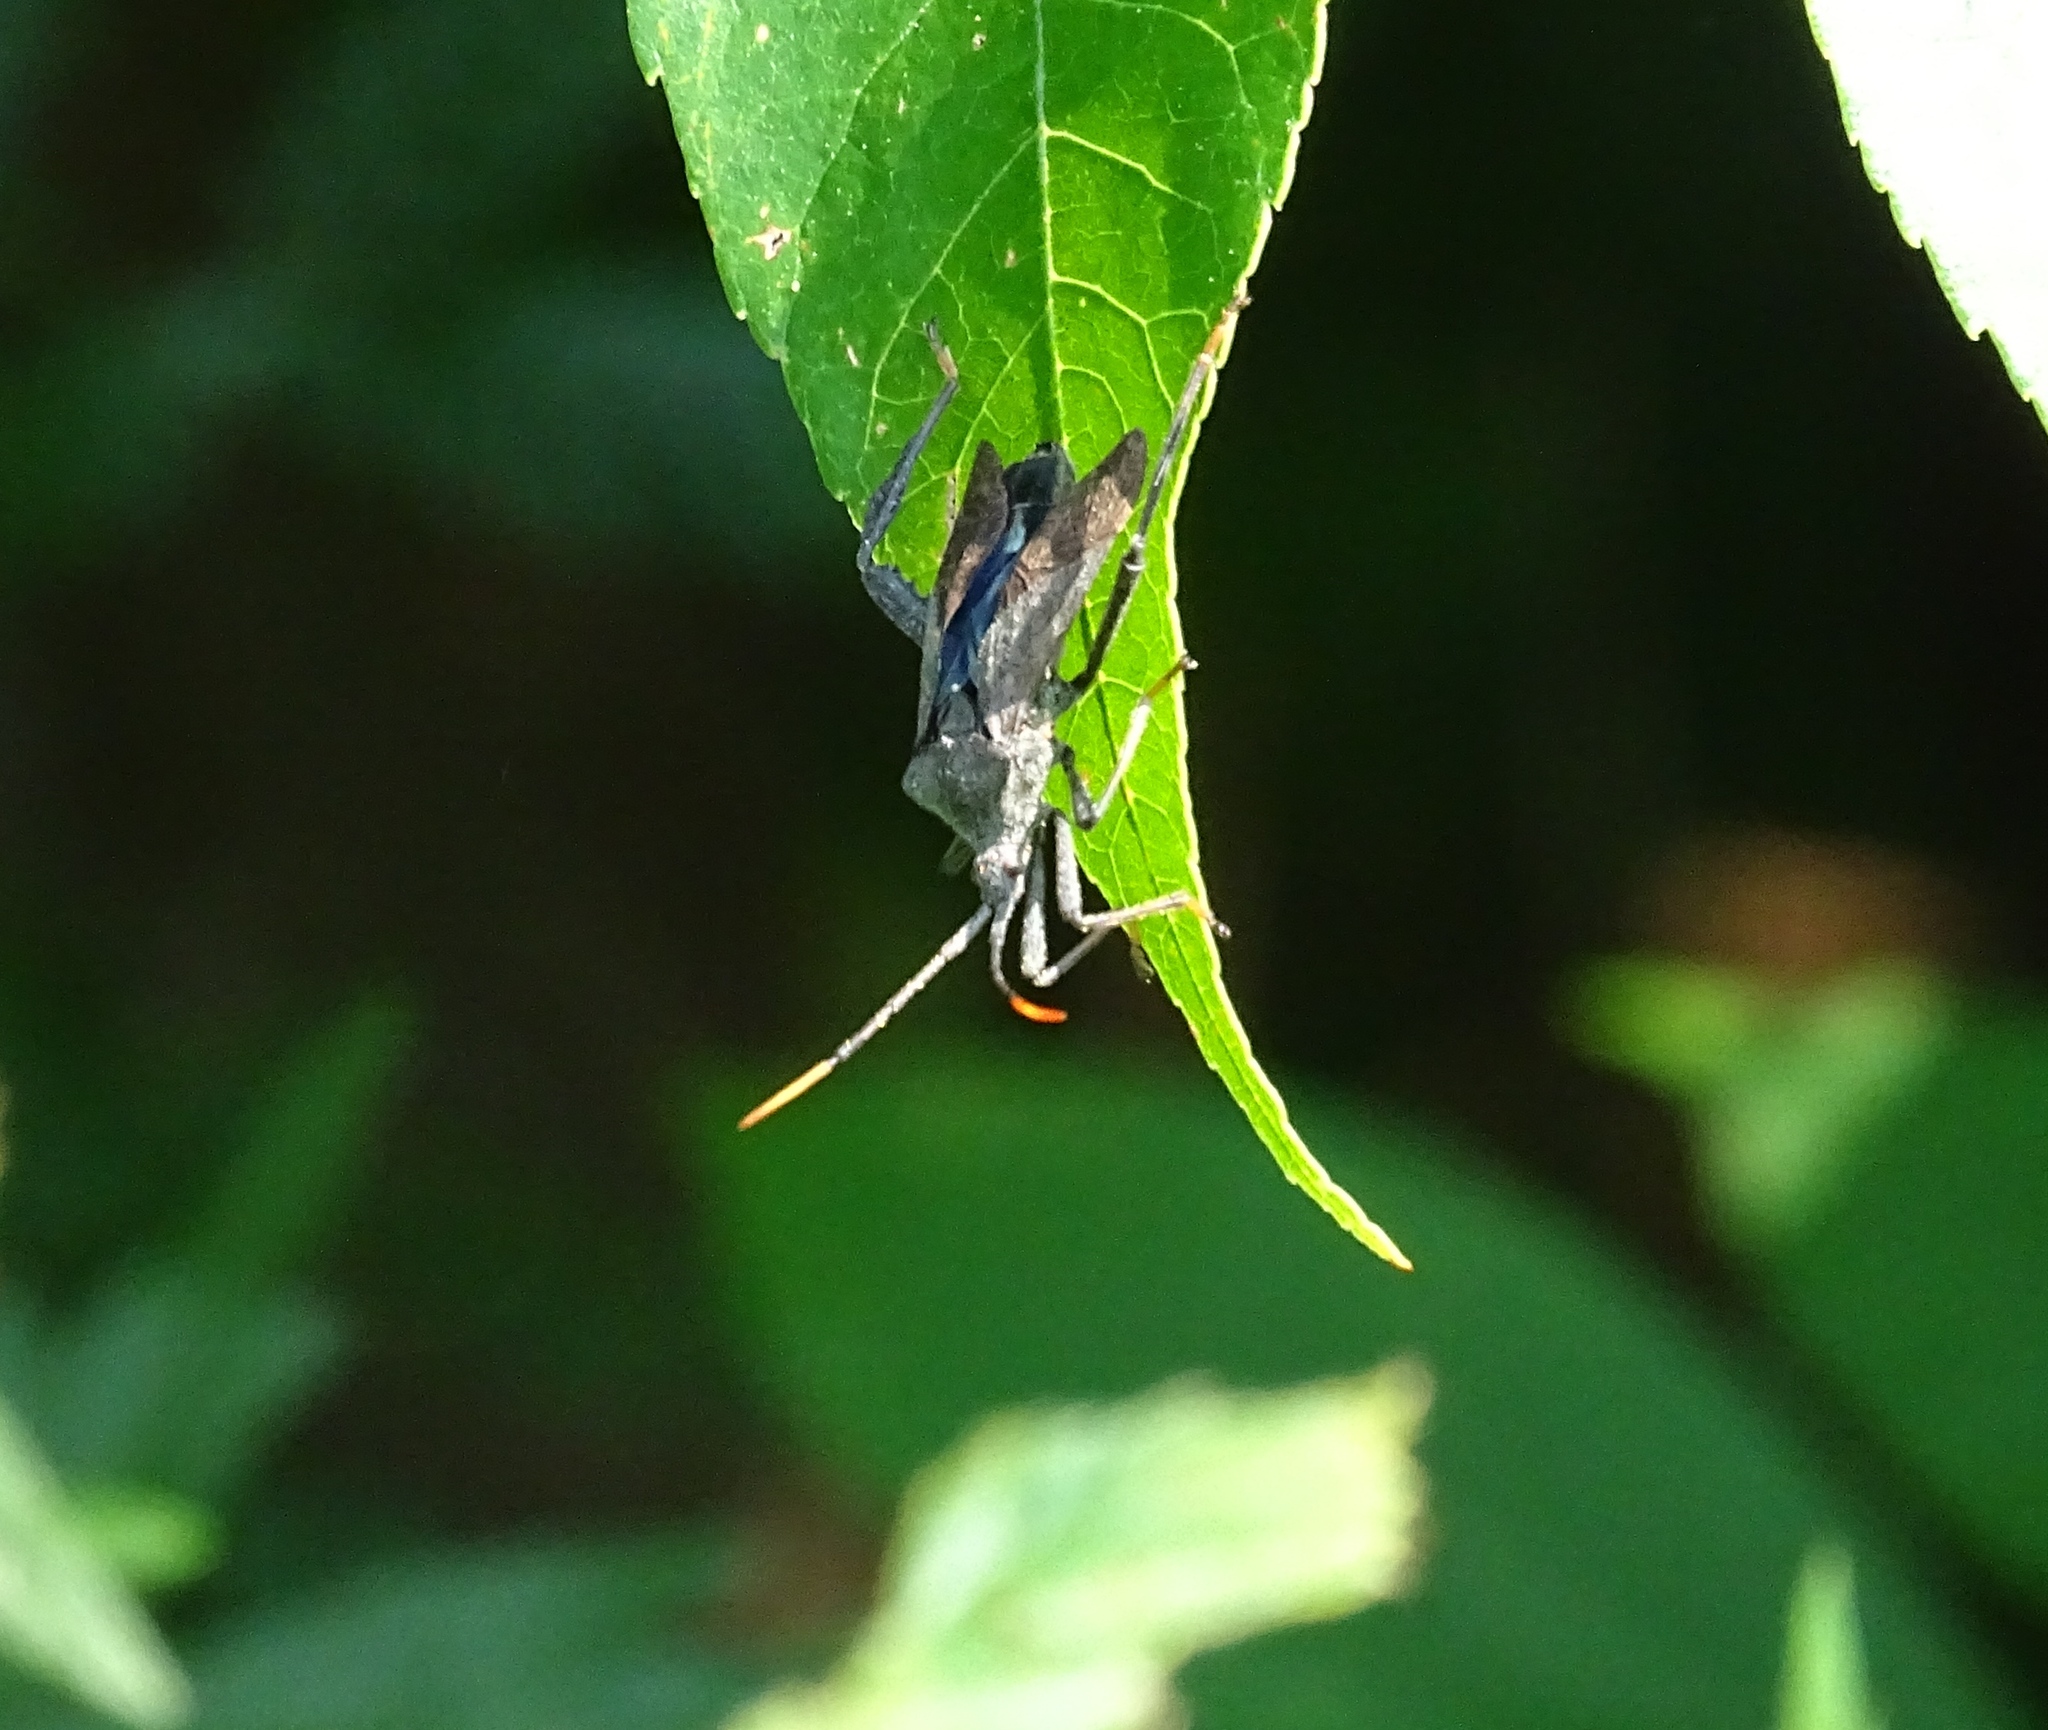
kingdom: Animalia
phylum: Arthropoda
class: Insecta
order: Hemiptera
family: Coreidae
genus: Acanthocephala
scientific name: Acanthocephala terminalis
